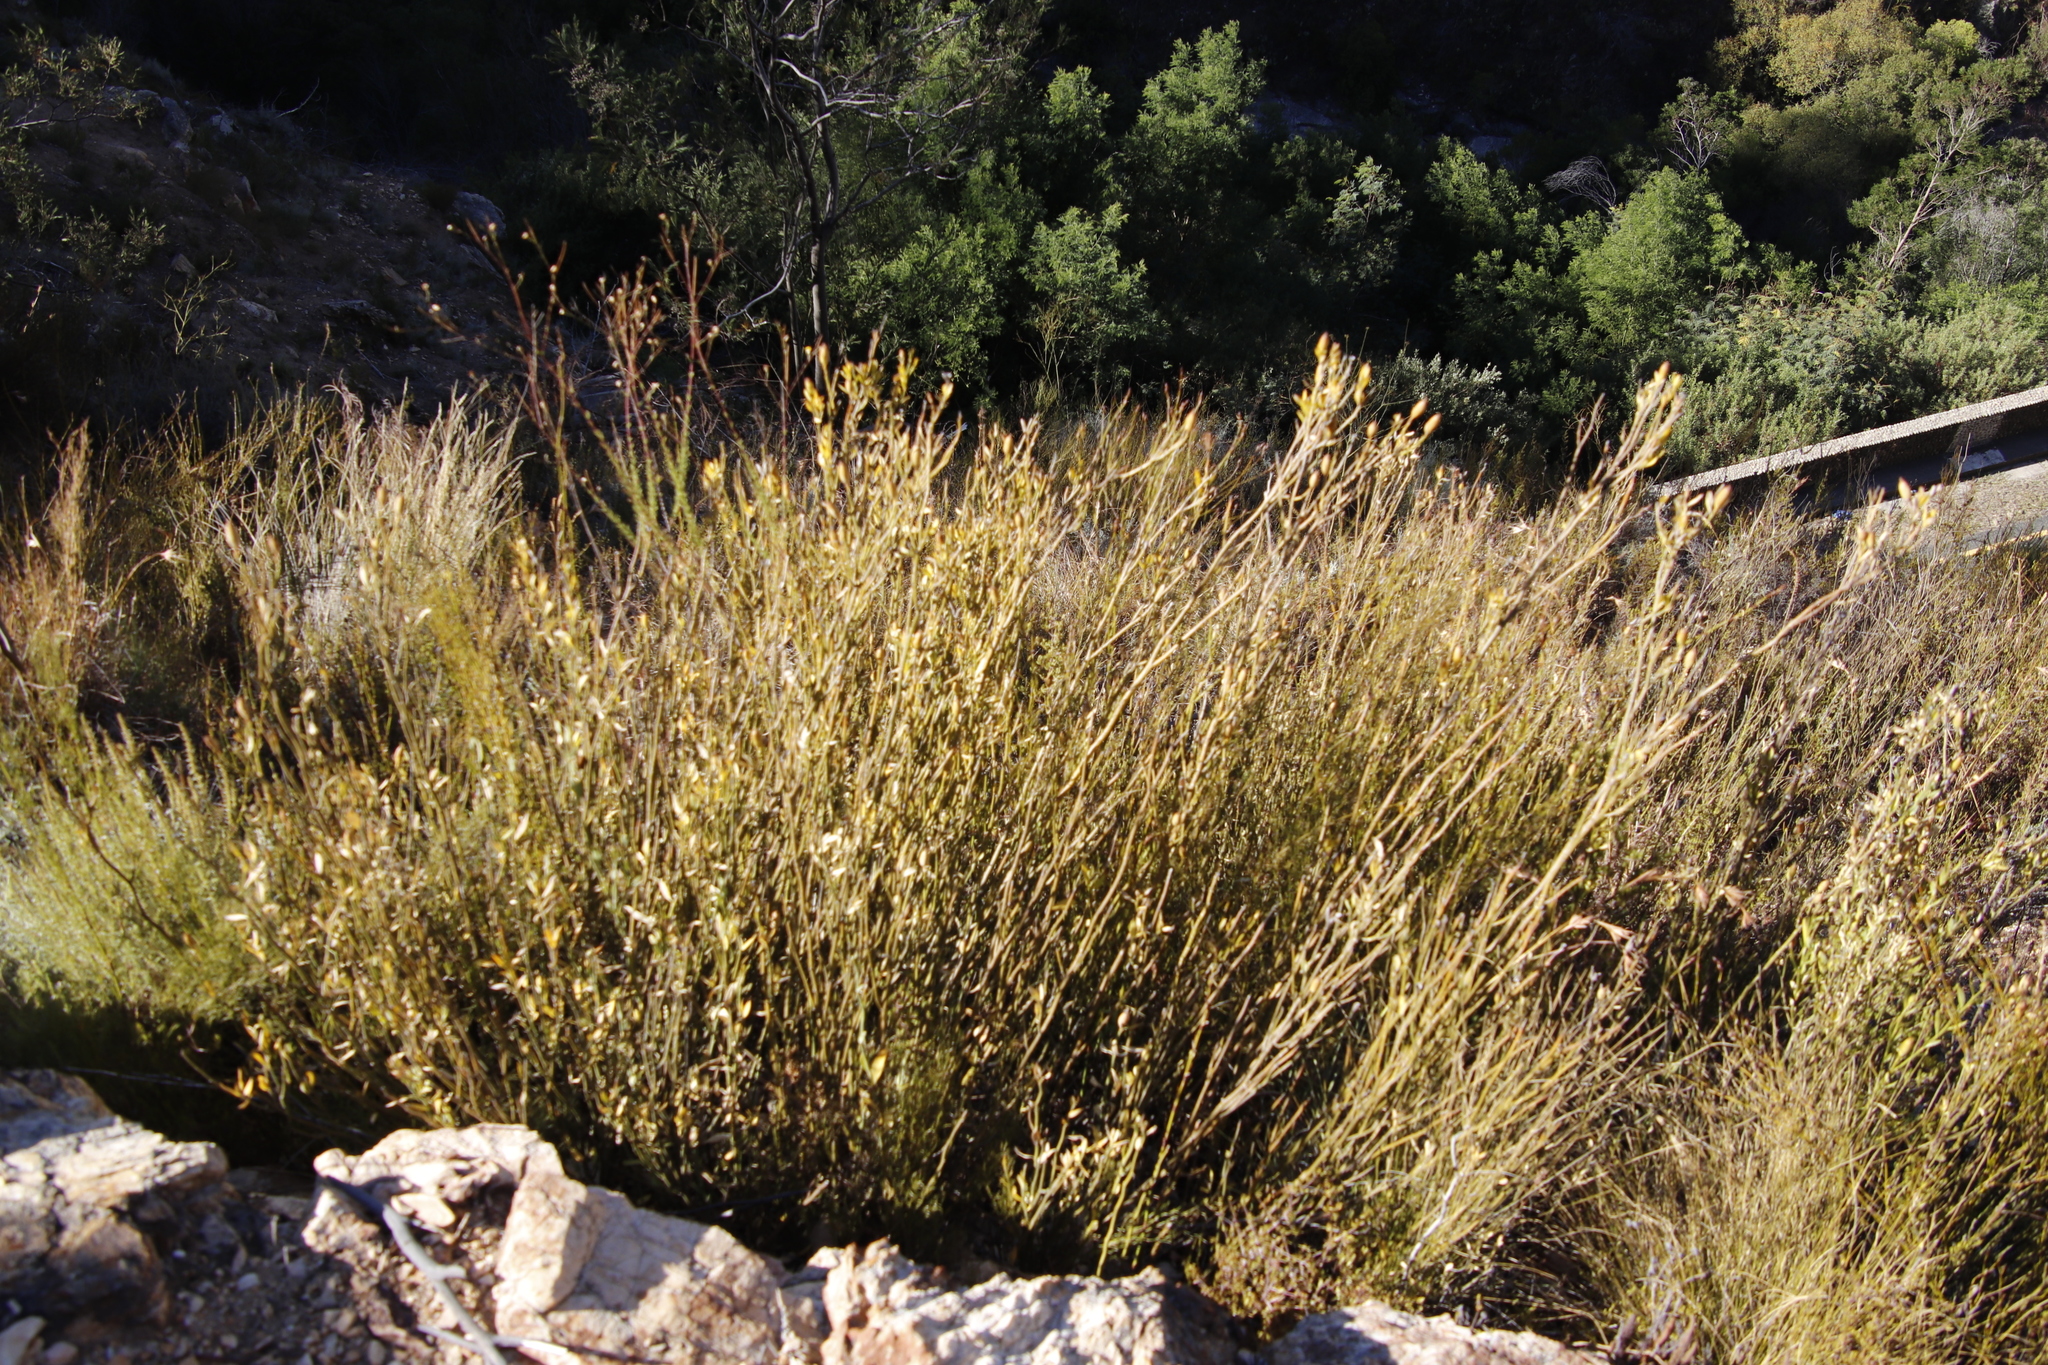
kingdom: Plantae
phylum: Tracheophyta
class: Magnoliopsida
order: Solanales
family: Montiniaceae
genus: Montinia
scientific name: Montinia caryophyllacea
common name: Wild clove-bush
